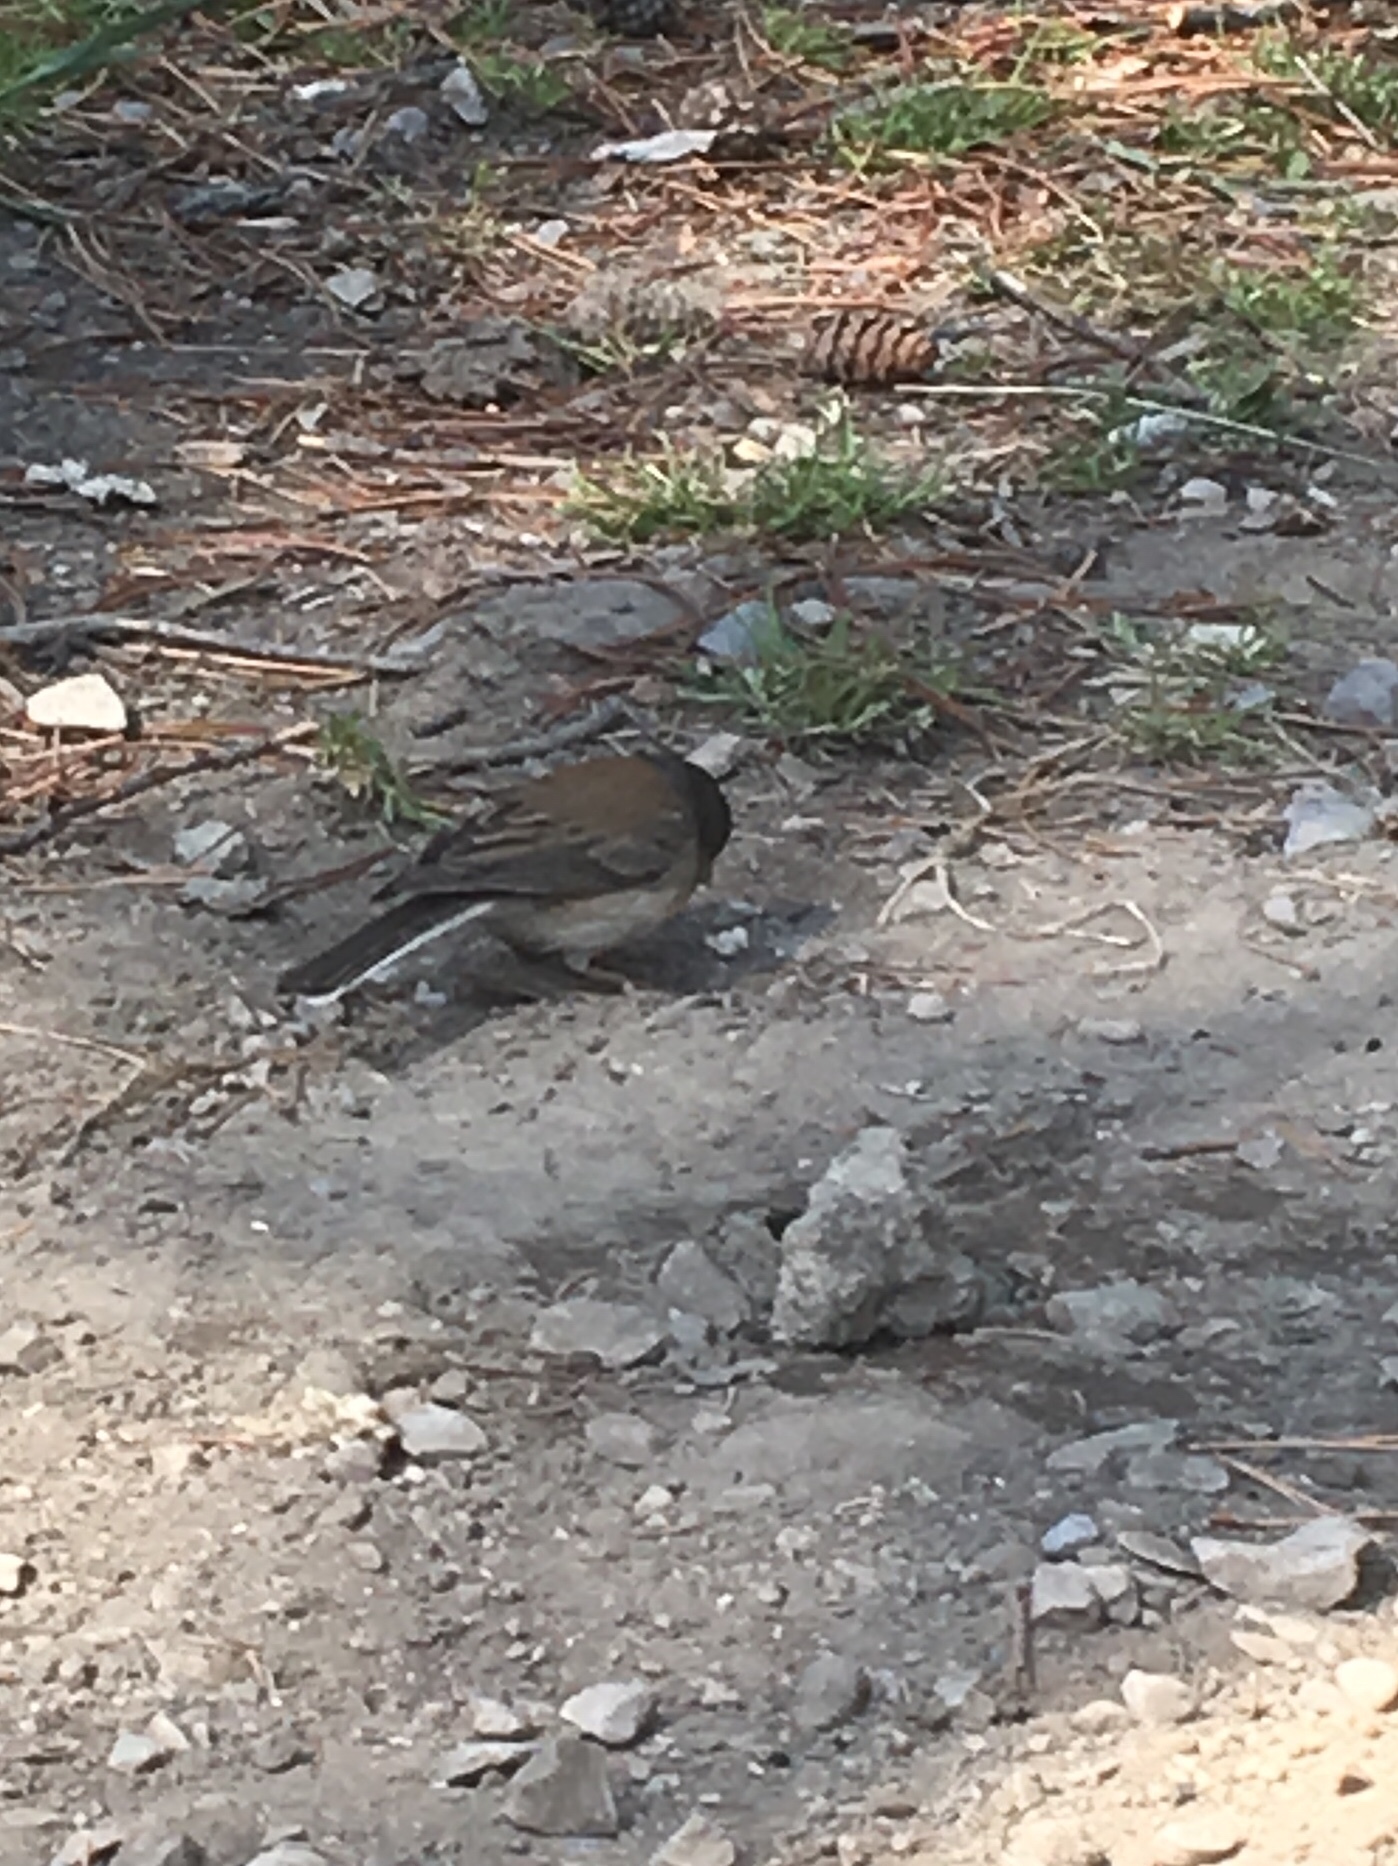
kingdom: Animalia
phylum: Chordata
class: Aves
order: Passeriformes
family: Passerellidae
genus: Junco
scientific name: Junco hyemalis
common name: Dark-eyed junco
